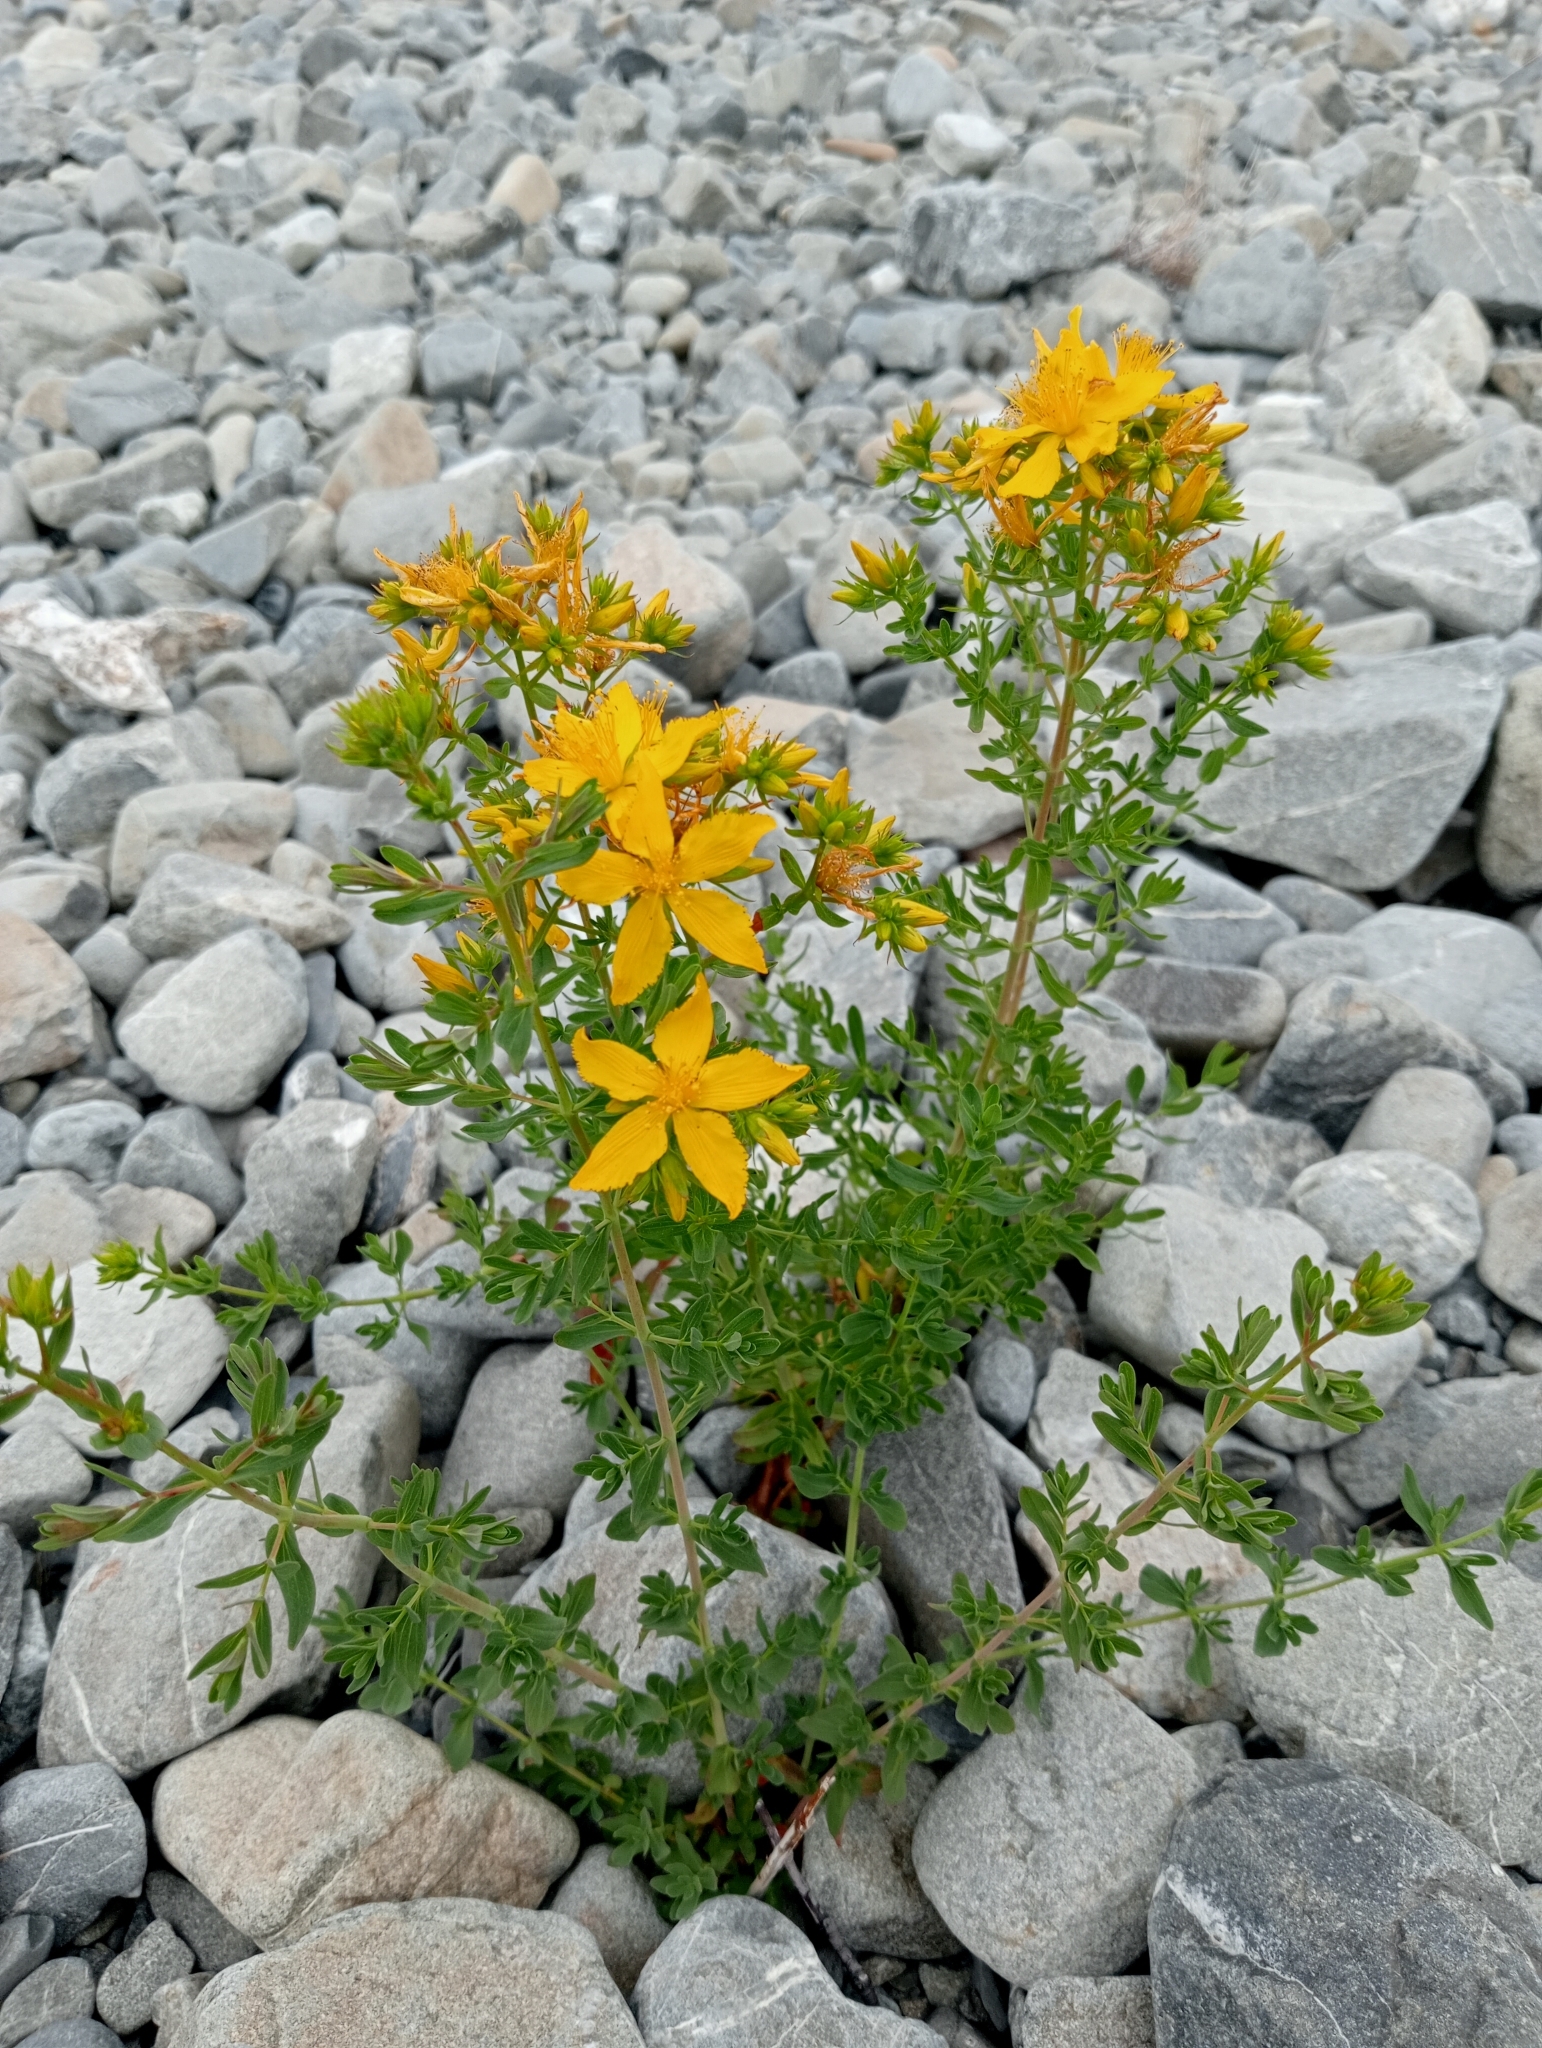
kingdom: Plantae
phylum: Tracheophyta
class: Magnoliopsida
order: Malpighiales
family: Hypericaceae
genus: Hypericum
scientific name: Hypericum perforatum
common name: Common st. johnswort
